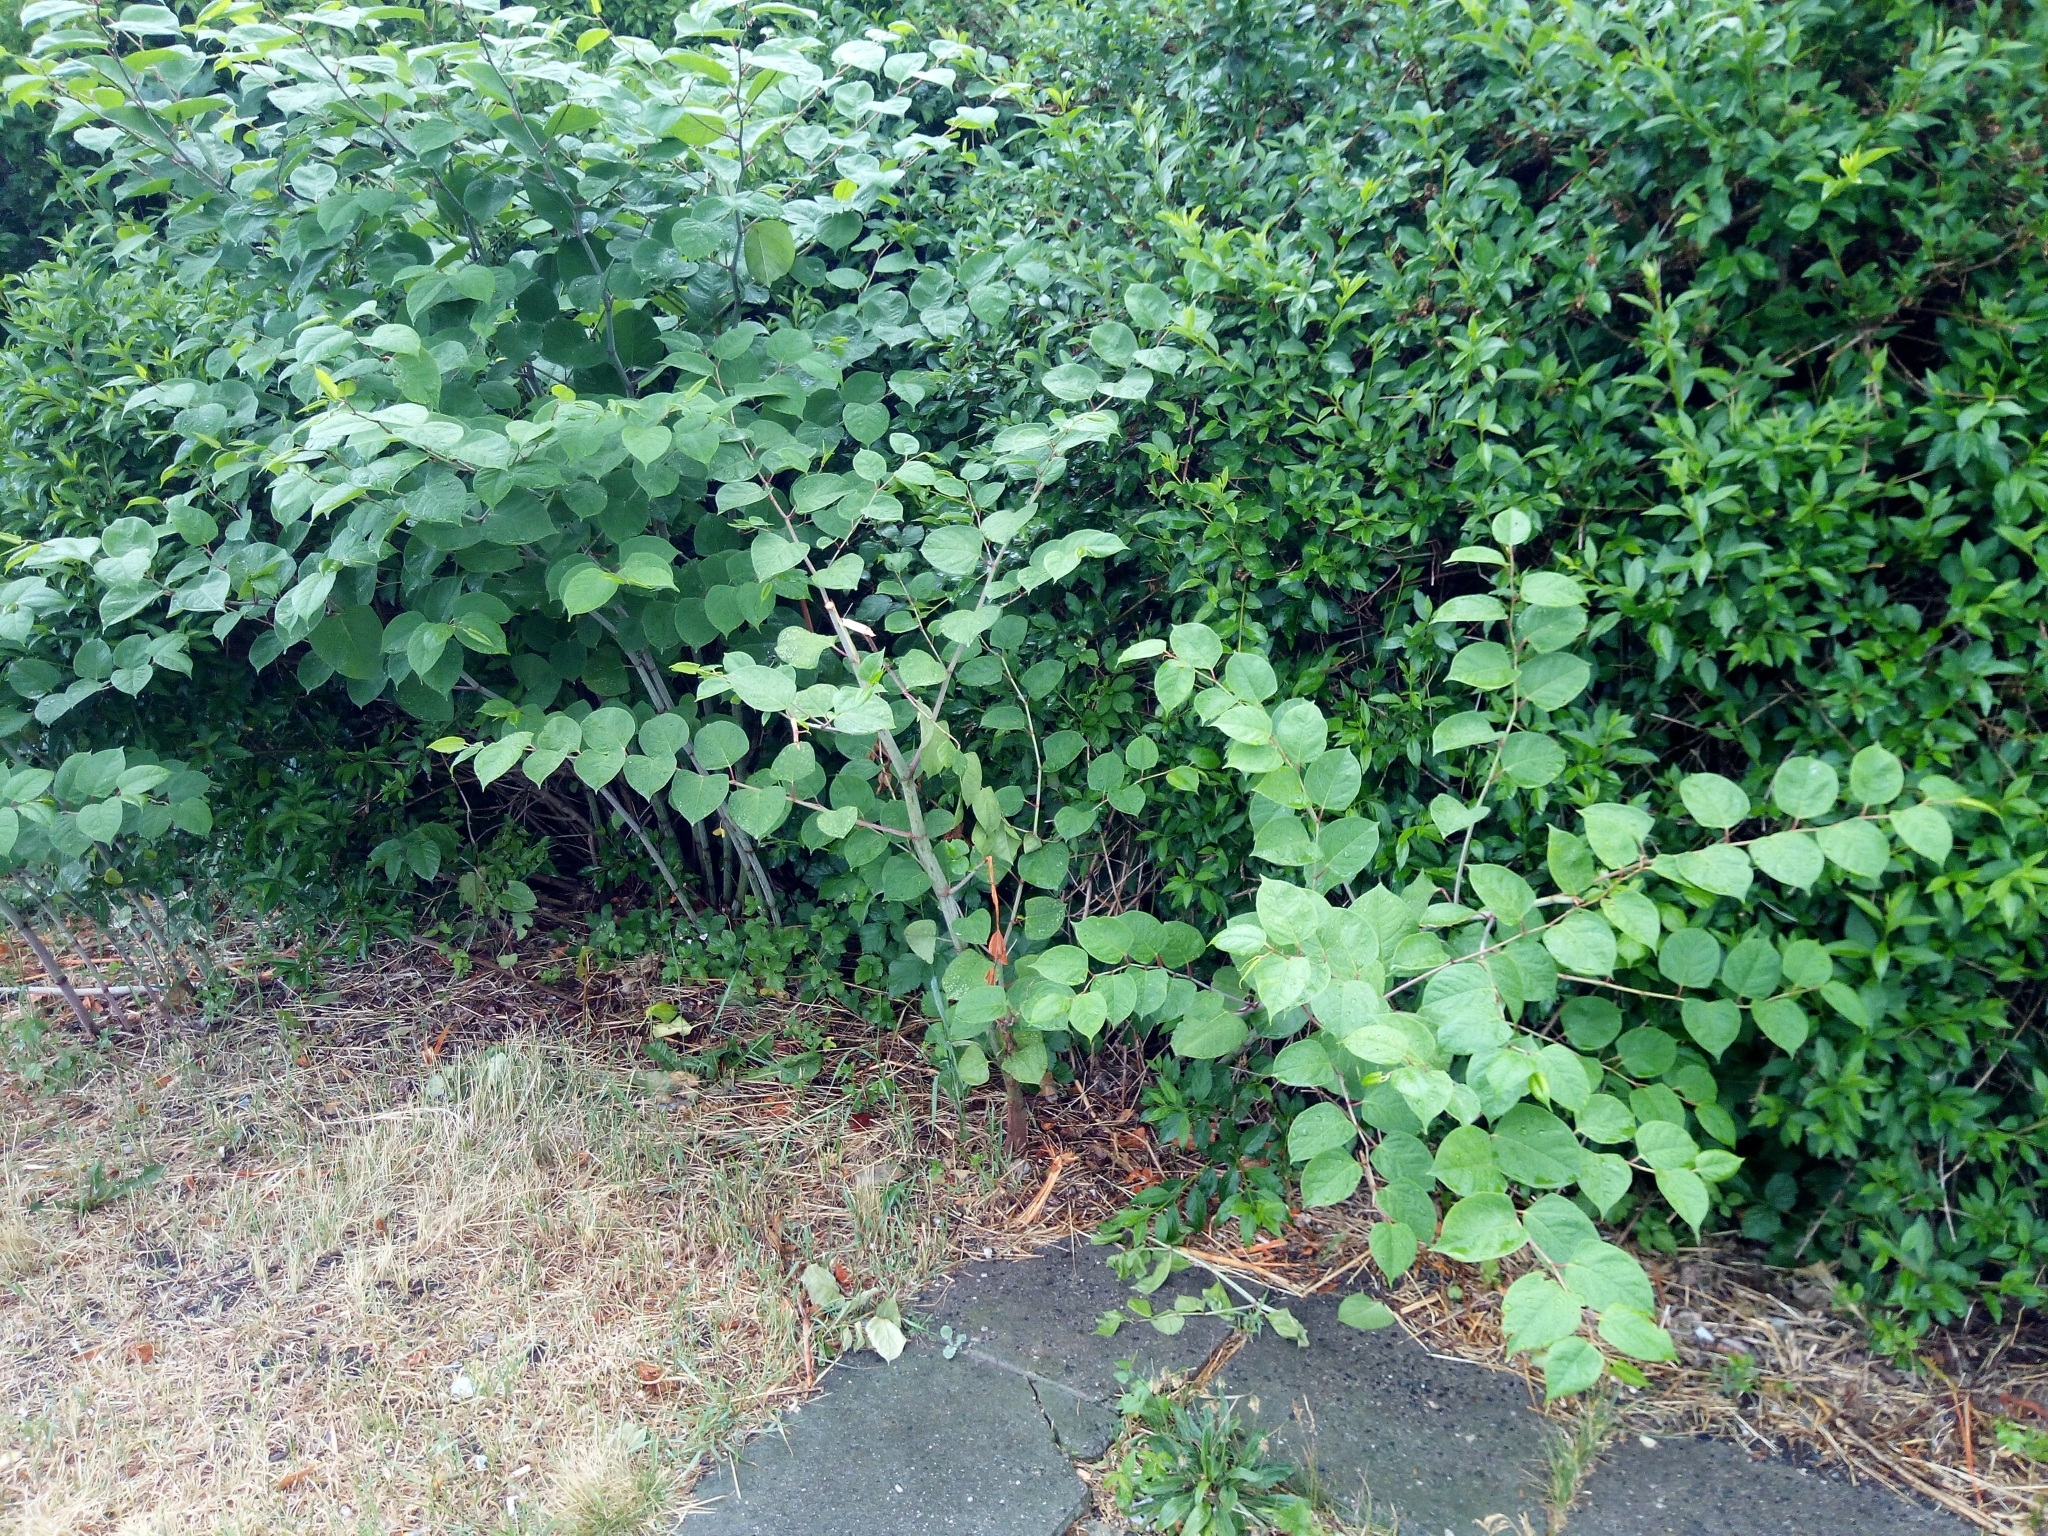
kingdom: Plantae
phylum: Tracheophyta
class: Magnoliopsida
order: Caryophyllales
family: Polygonaceae
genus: Reynoutria
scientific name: Reynoutria japonica
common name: Japanese knotweed
